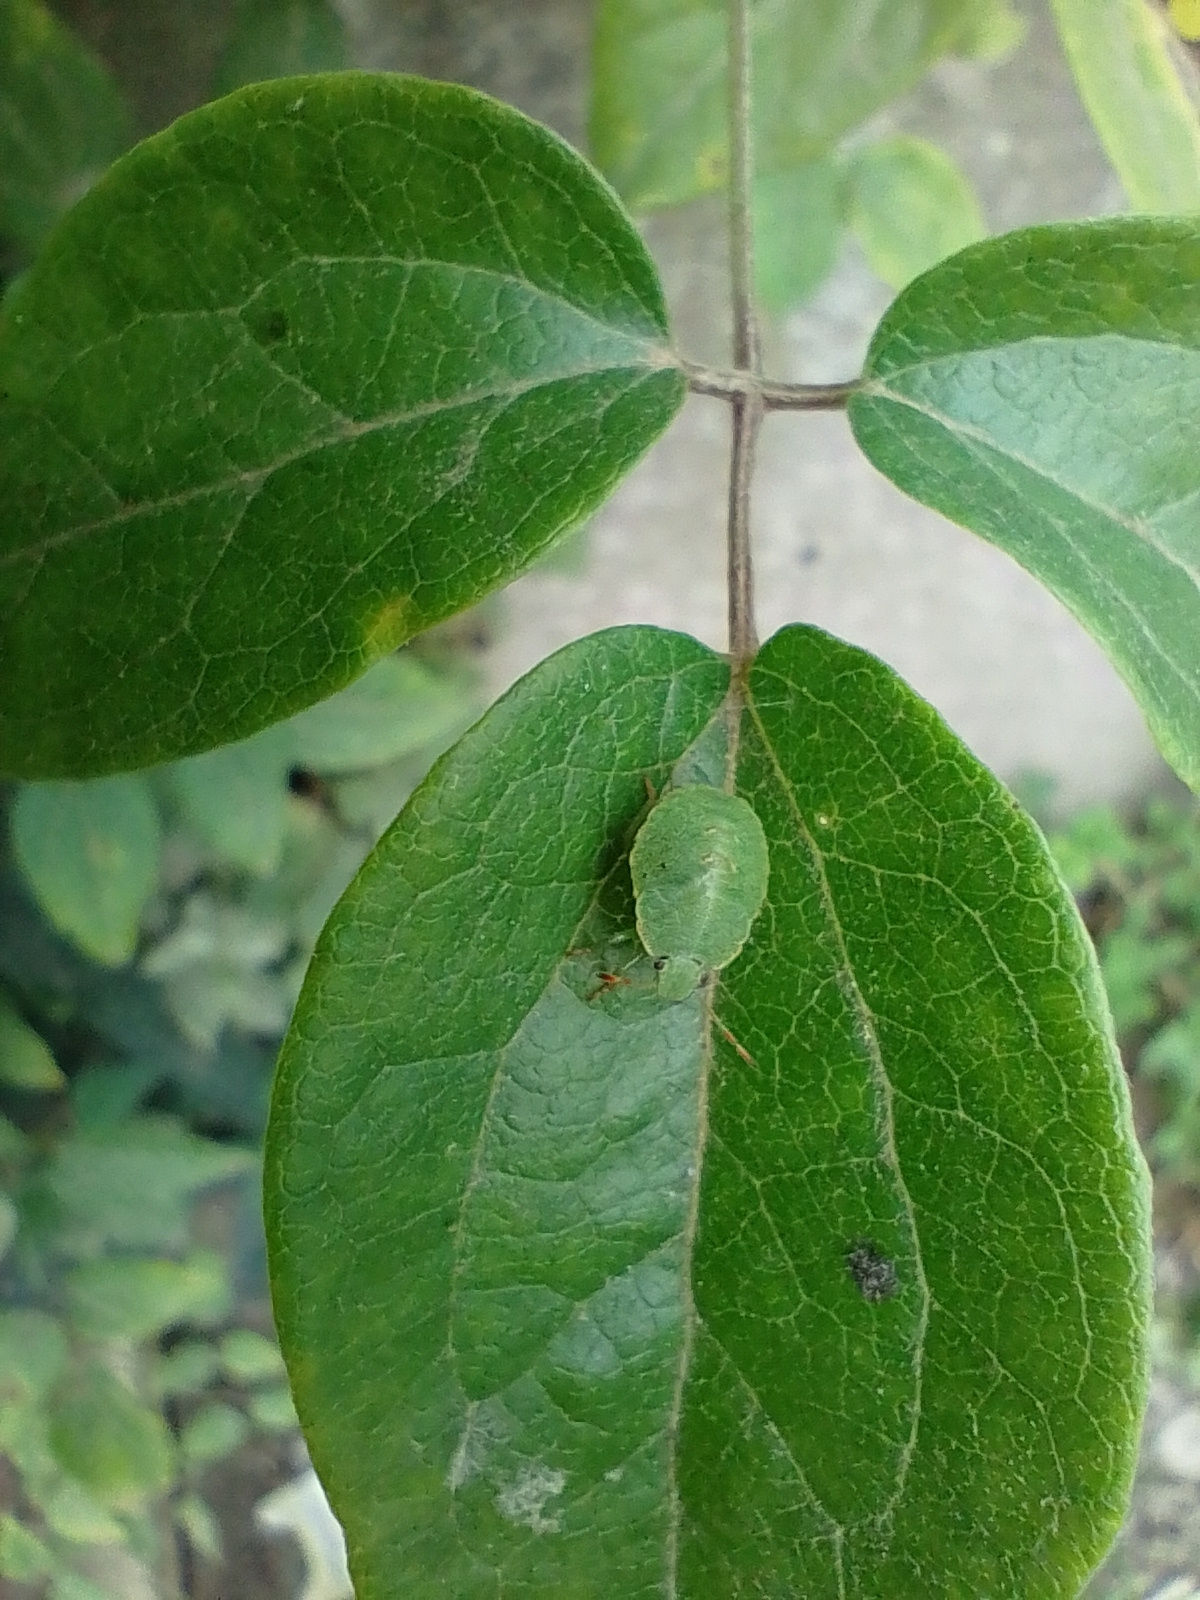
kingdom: Animalia
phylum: Arthropoda
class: Insecta
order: Hemiptera
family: Pentatomidae
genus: Palomena
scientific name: Palomena prasina
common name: Green shieldbug
